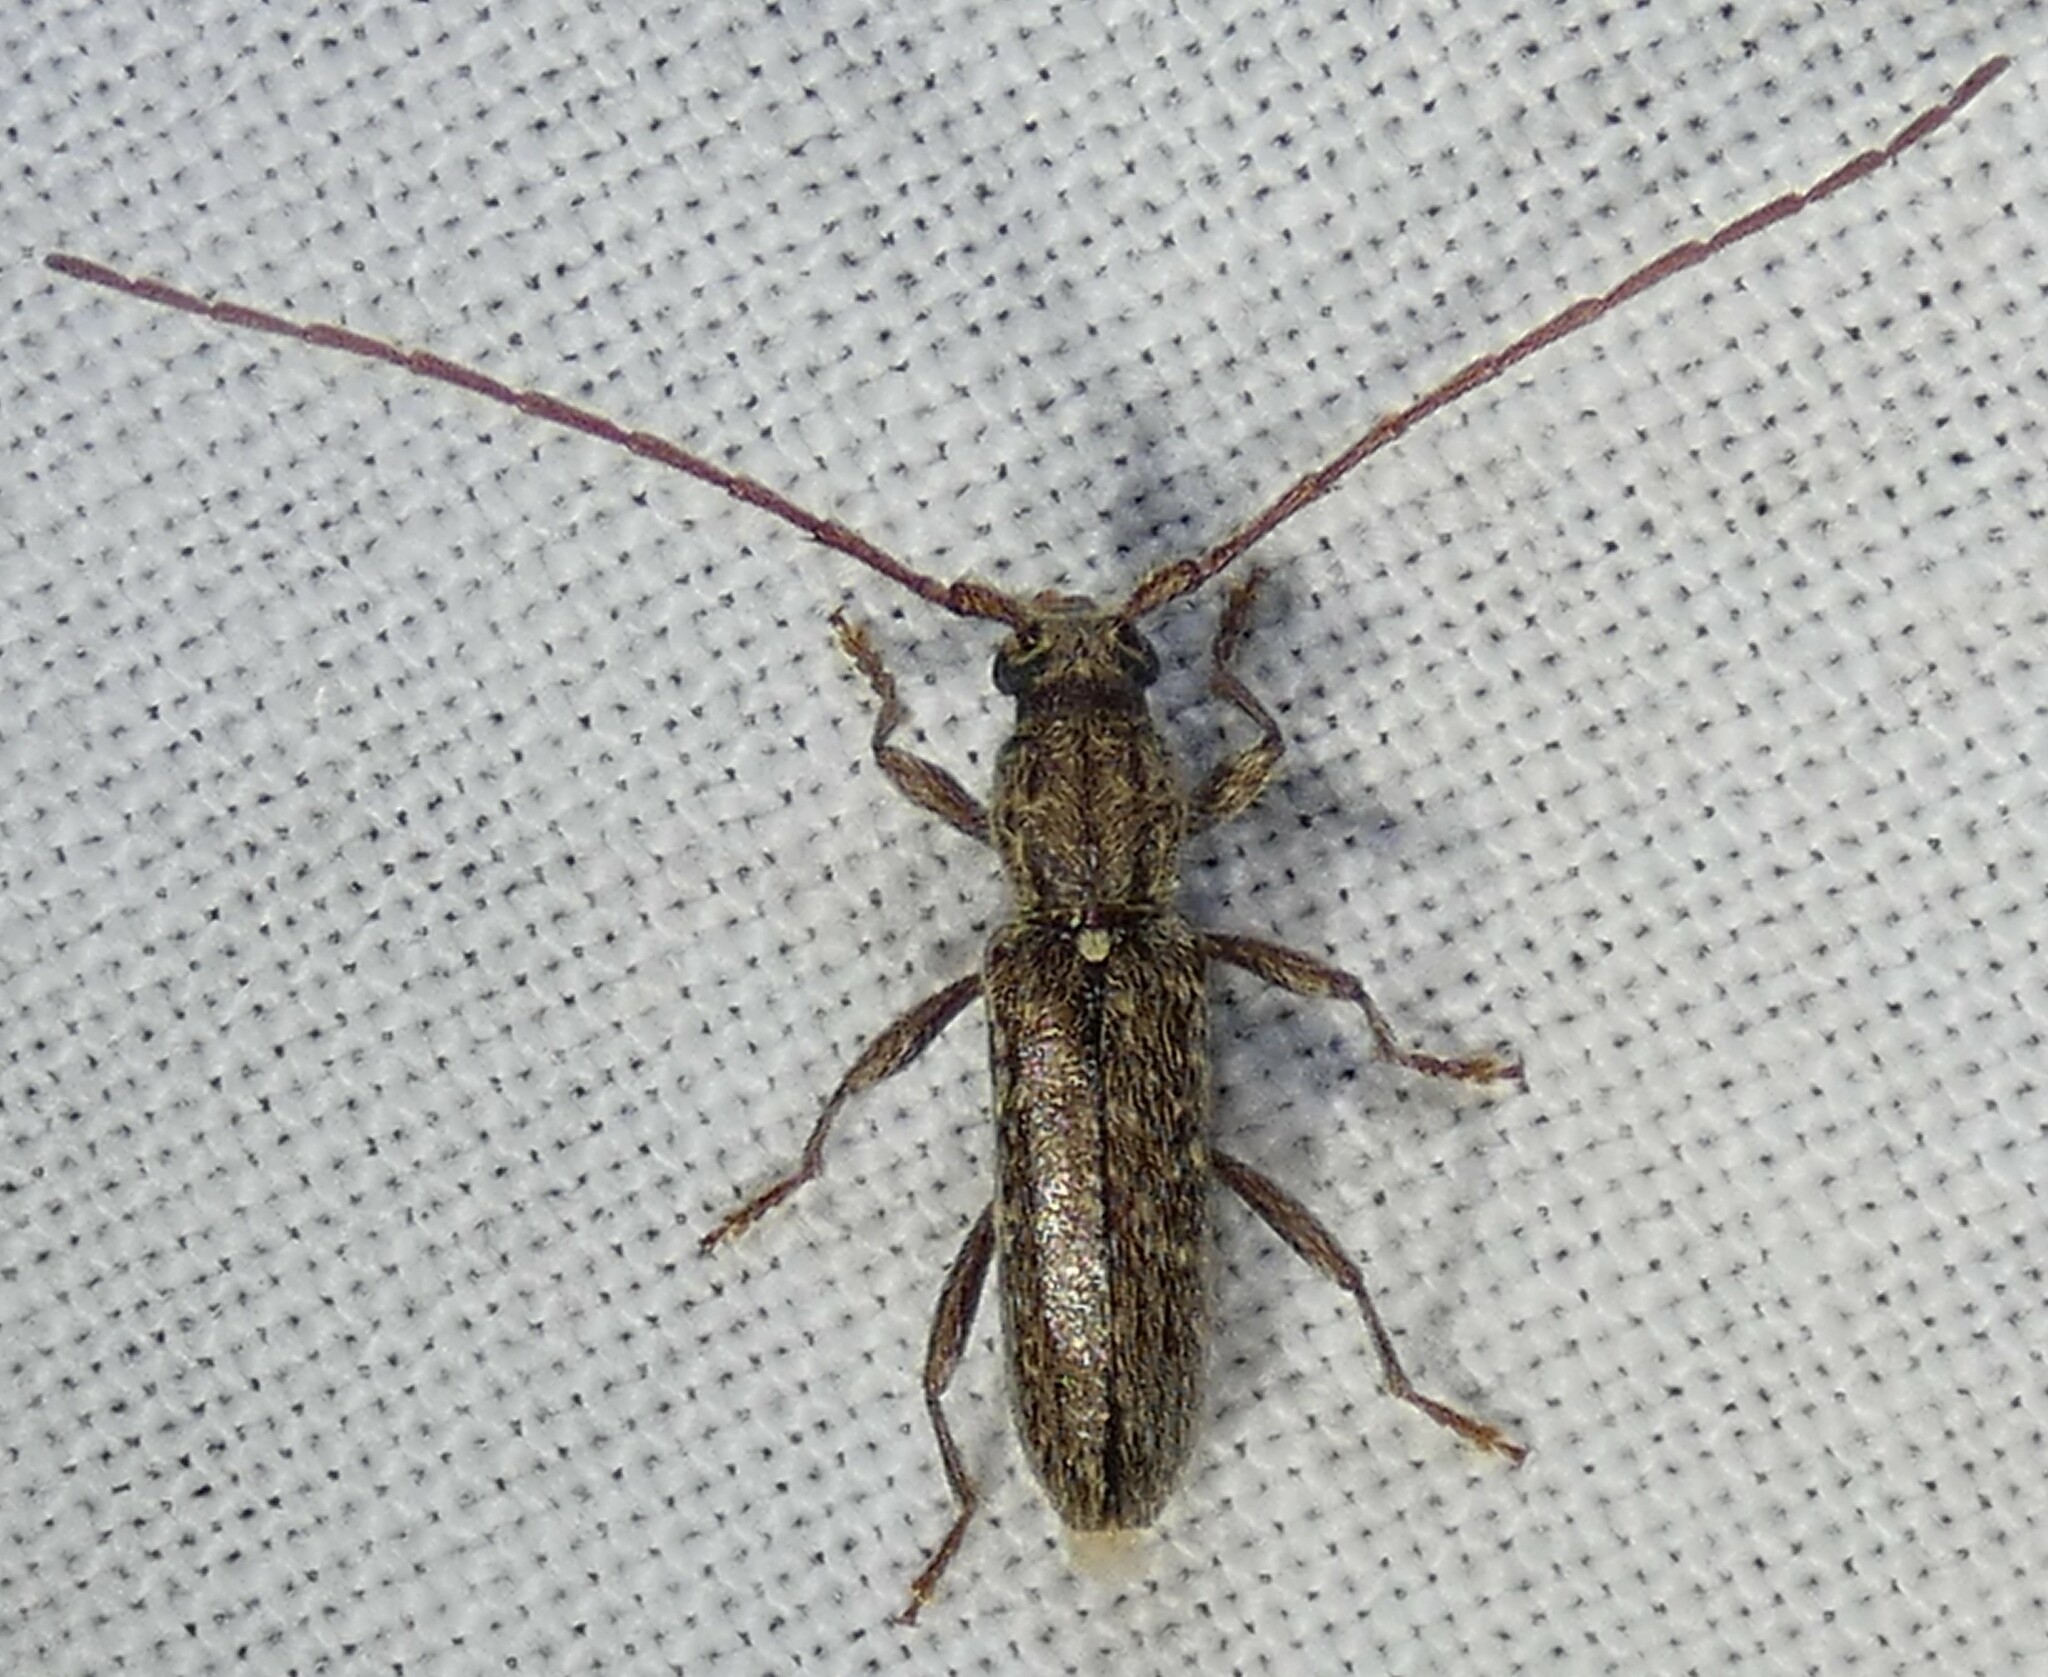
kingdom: Animalia
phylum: Arthropoda
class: Insecta
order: Coleoptera
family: Cerambycidae
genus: Anelaphus
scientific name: Anelaphus pumilus
